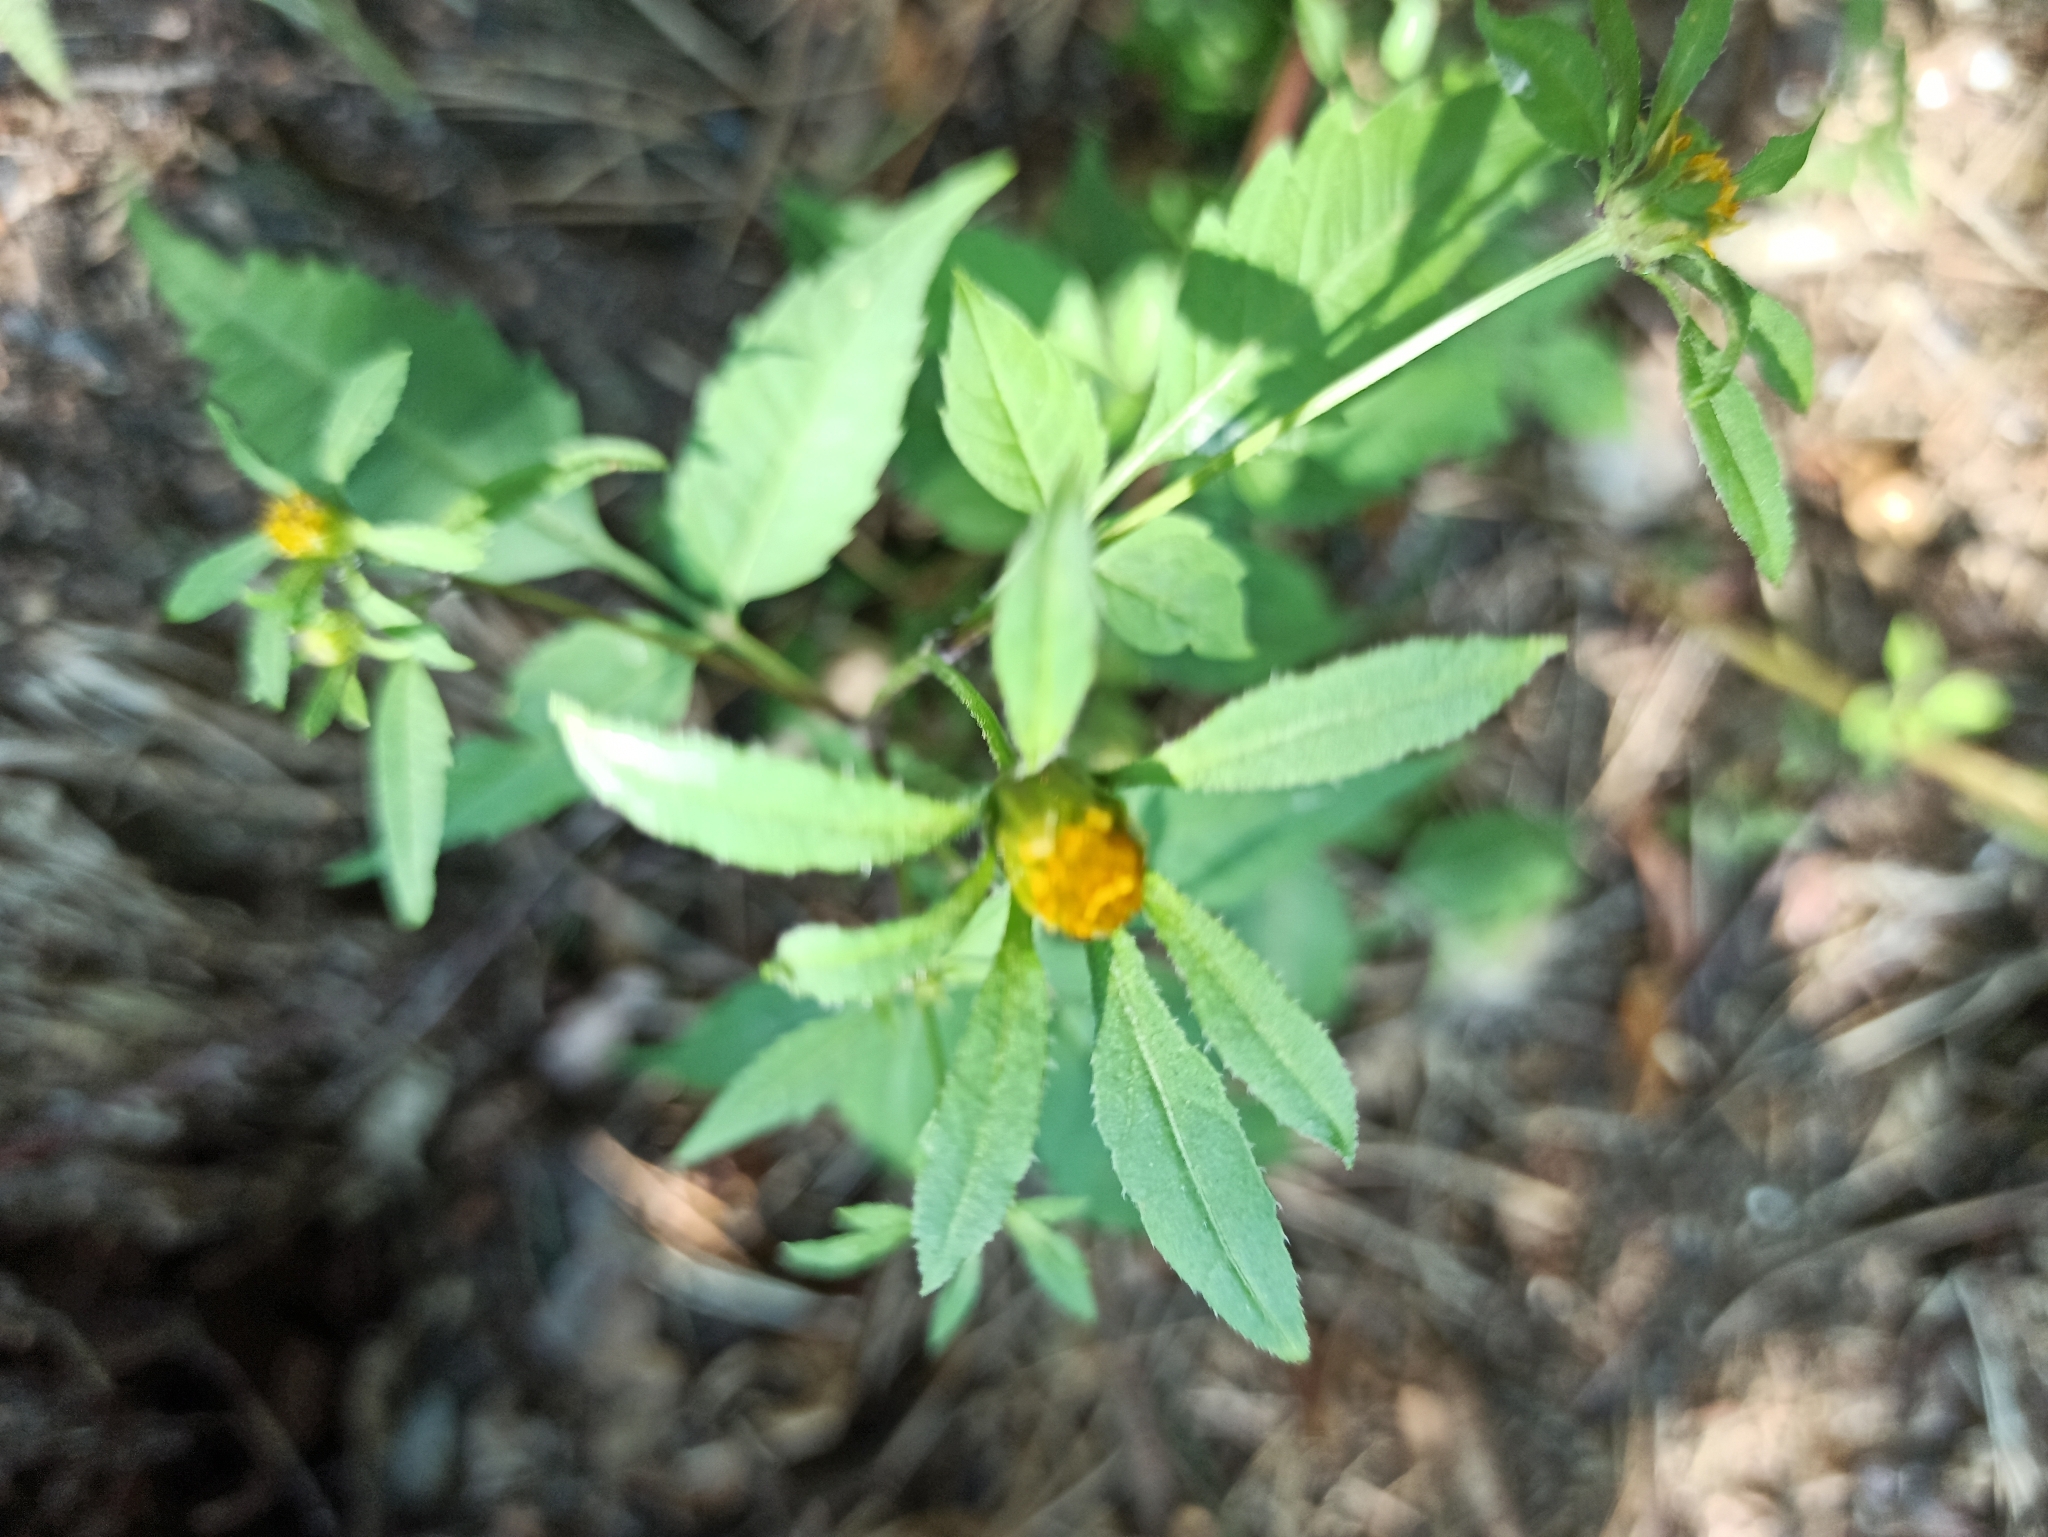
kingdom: Plantae
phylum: Tracheophyta
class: Magnoliopsida
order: Asterales
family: Asteraceae
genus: Bidens
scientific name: Bidens frondosa
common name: Beggarticks
